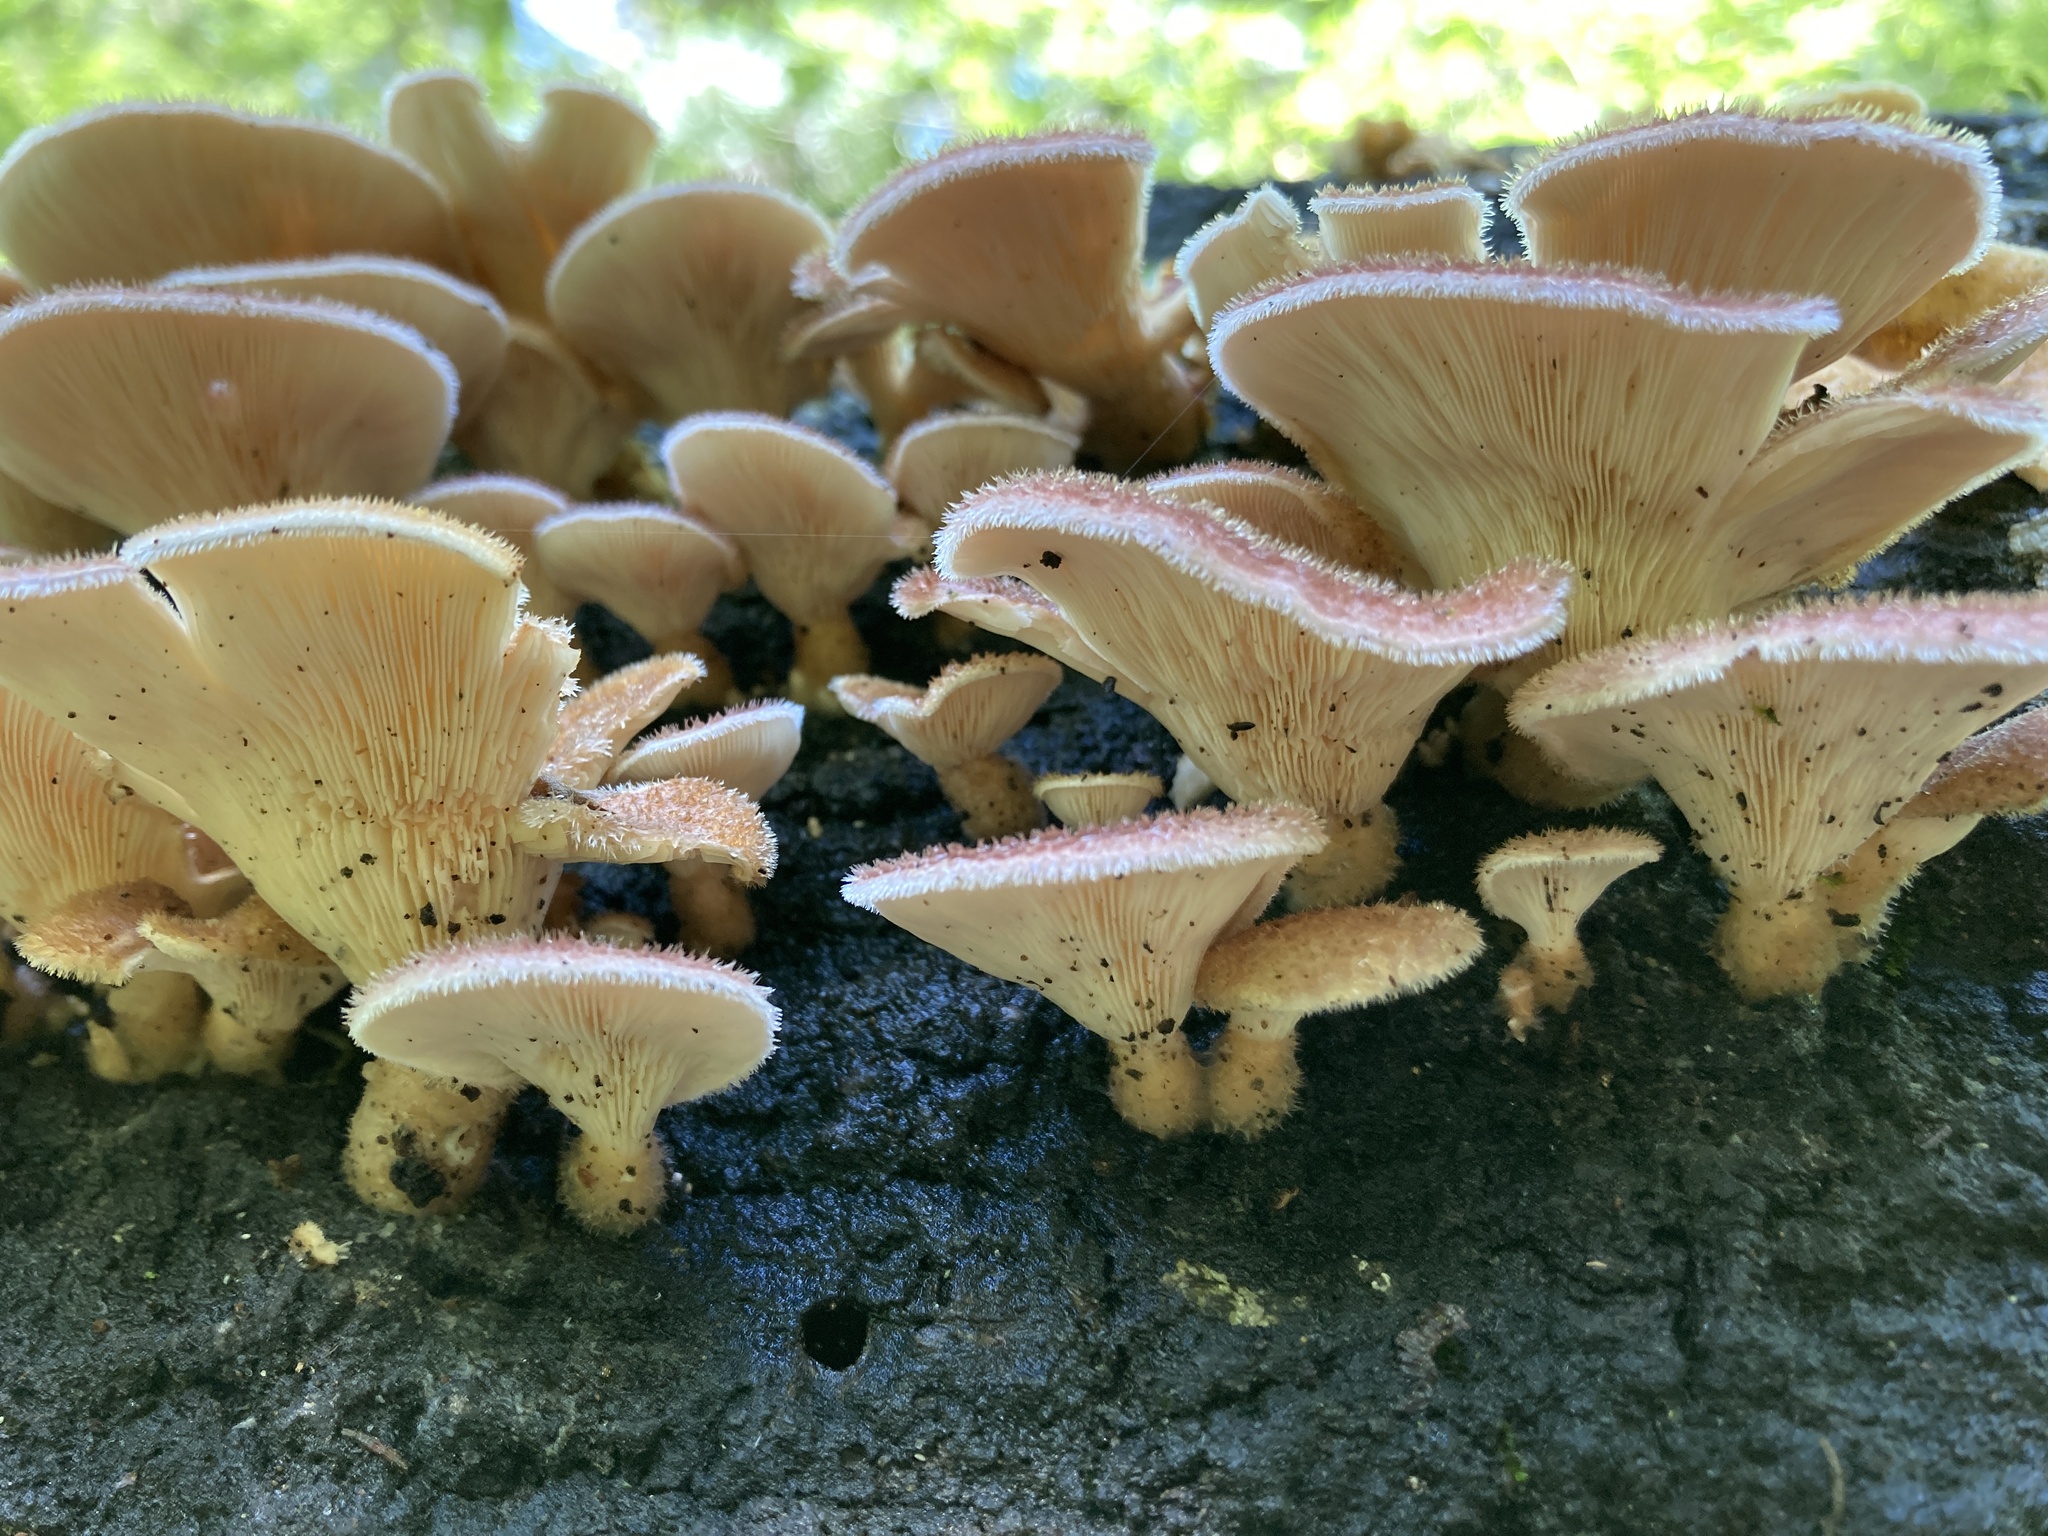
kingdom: Fungi
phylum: Basidiomycota
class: Agaricomycetes
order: Polyporales
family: Panaceae
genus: Panus
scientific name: Panus neostrigosus
